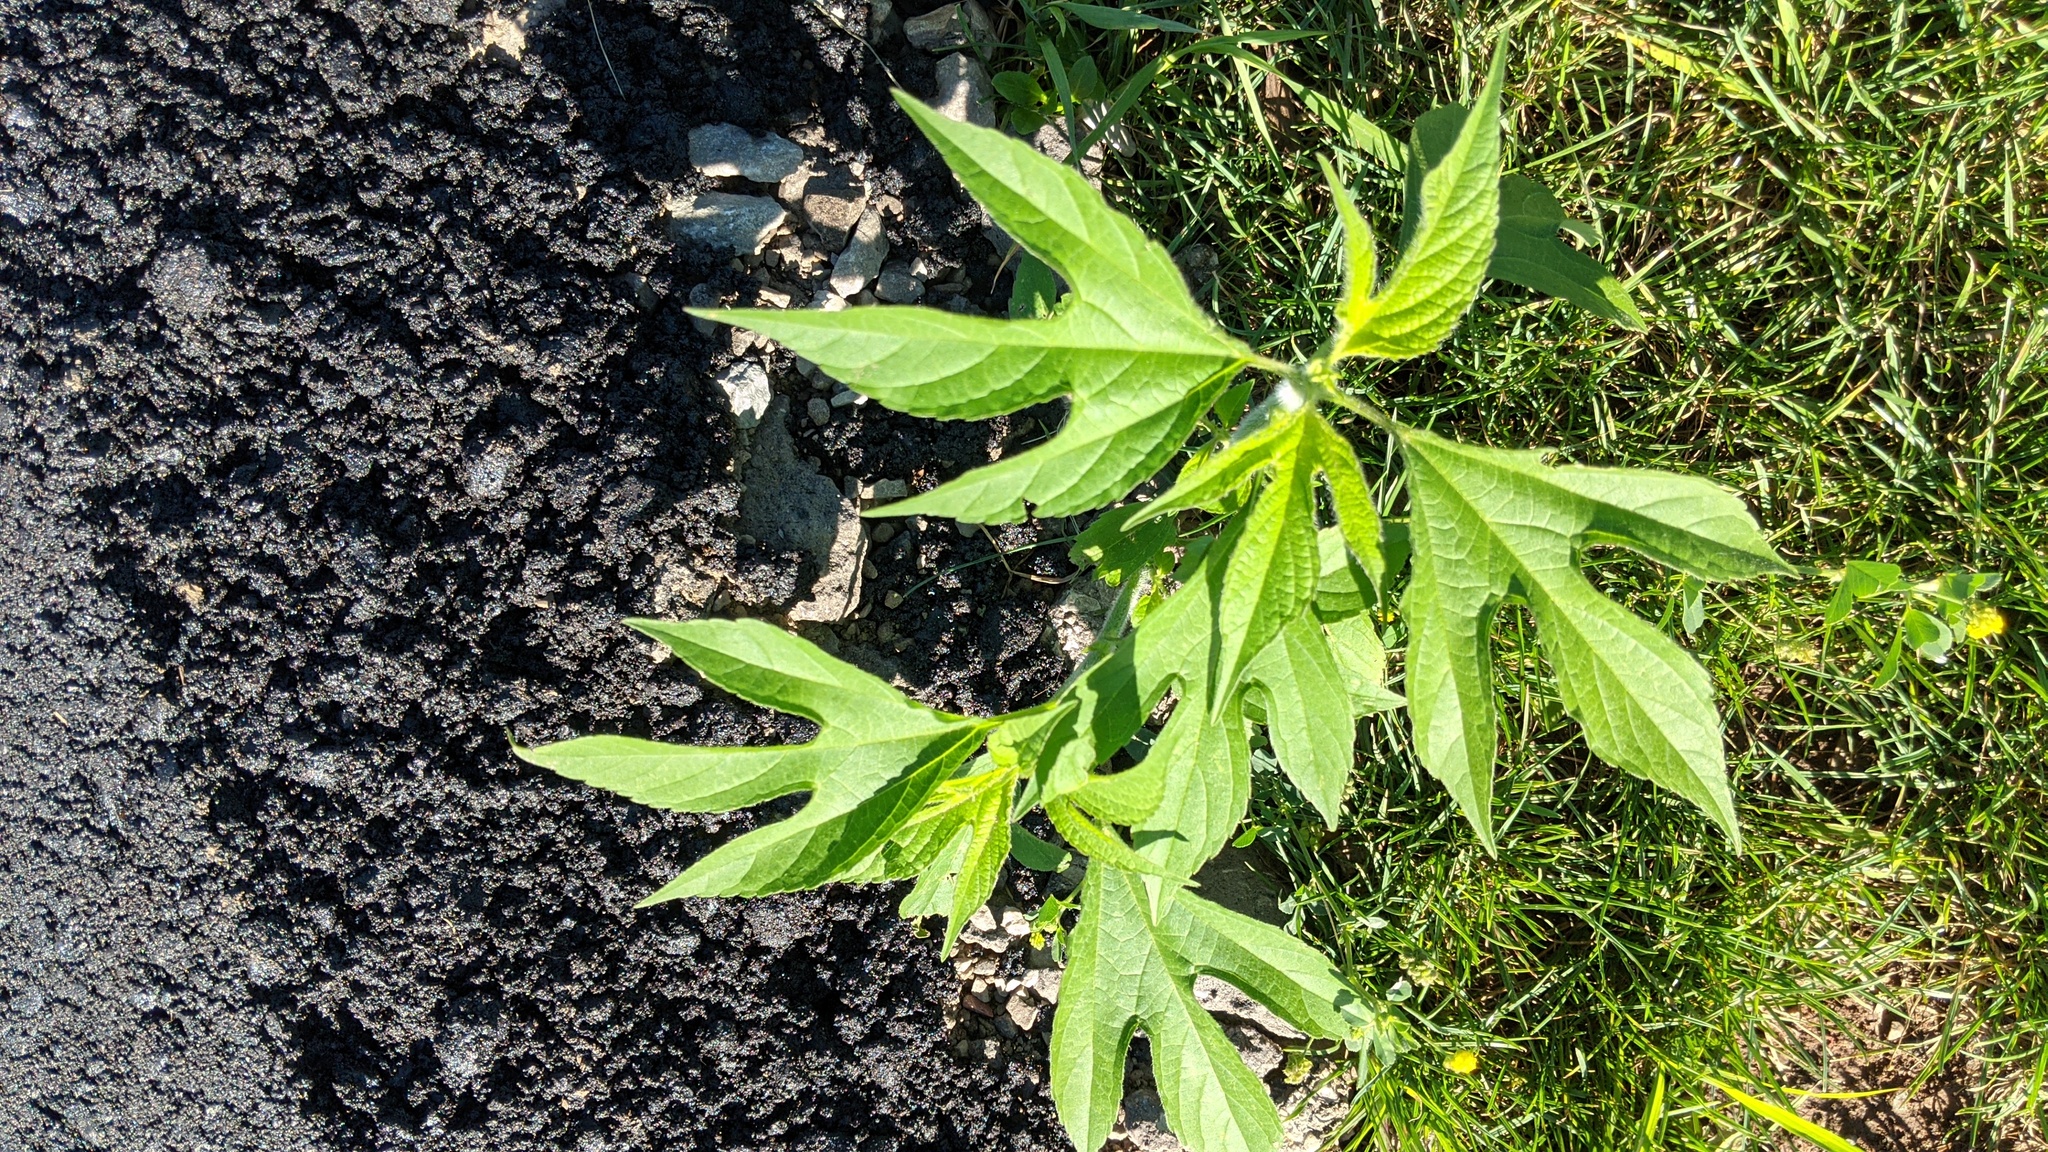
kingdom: Plantae
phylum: Tracheophyta
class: Magnoliopsida
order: Asterales
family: Asteraceae
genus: Ambrosia
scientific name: Ambrosia trifida
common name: Giant ragweed
